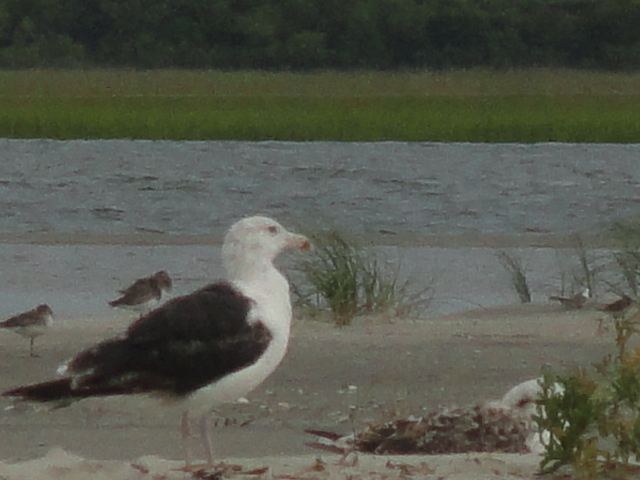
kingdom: Animalia
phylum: Chordata
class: Aves
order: Charadriiformes
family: Laridae
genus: Larus
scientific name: Larus marinus
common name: Great black-backed gull
